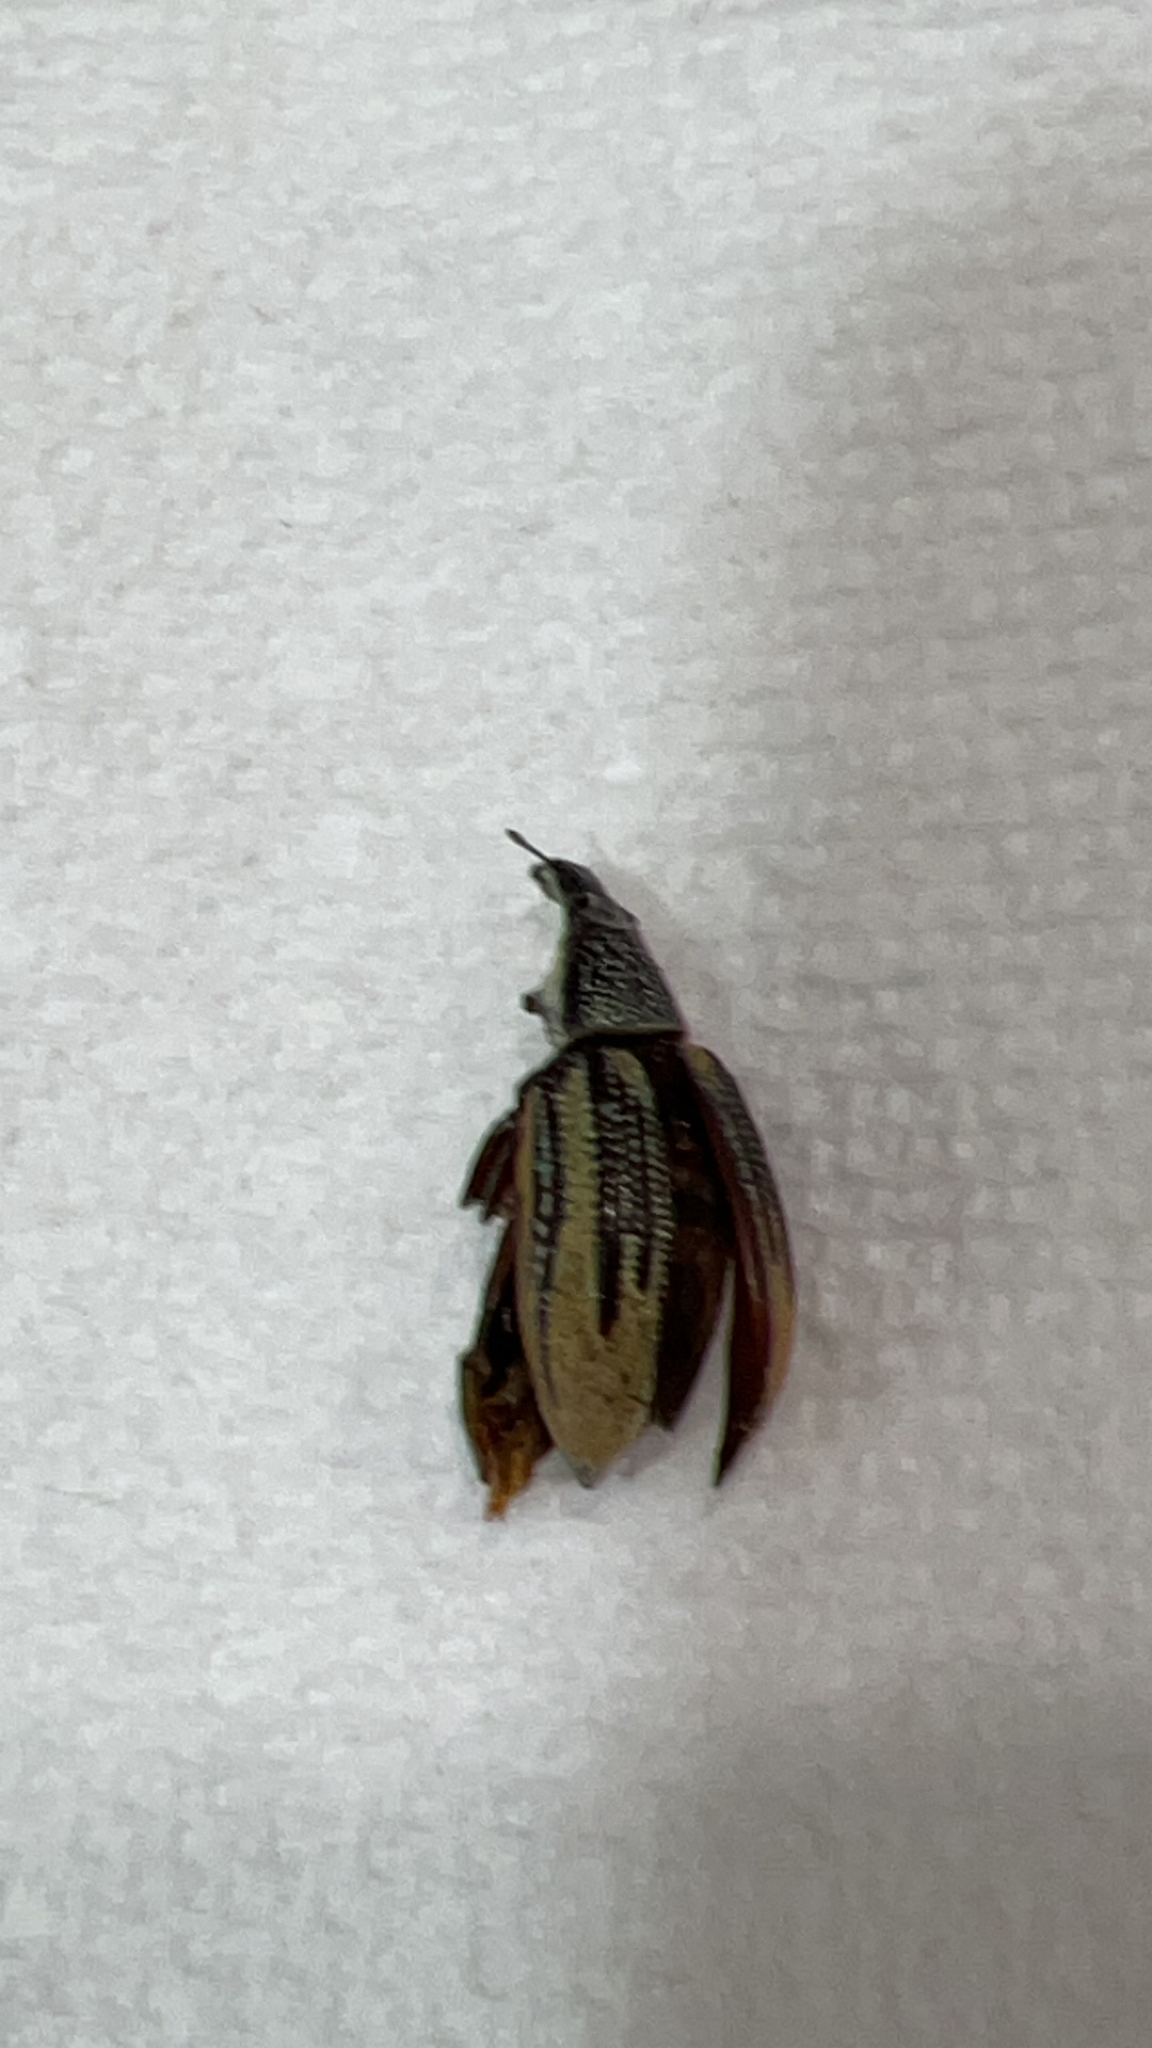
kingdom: Animalia
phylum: Arthropoda
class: Insecta
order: Coleoptera
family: Curculionidae
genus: Diaprepes
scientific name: Diaprepes abbreviatus
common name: Root weevil
